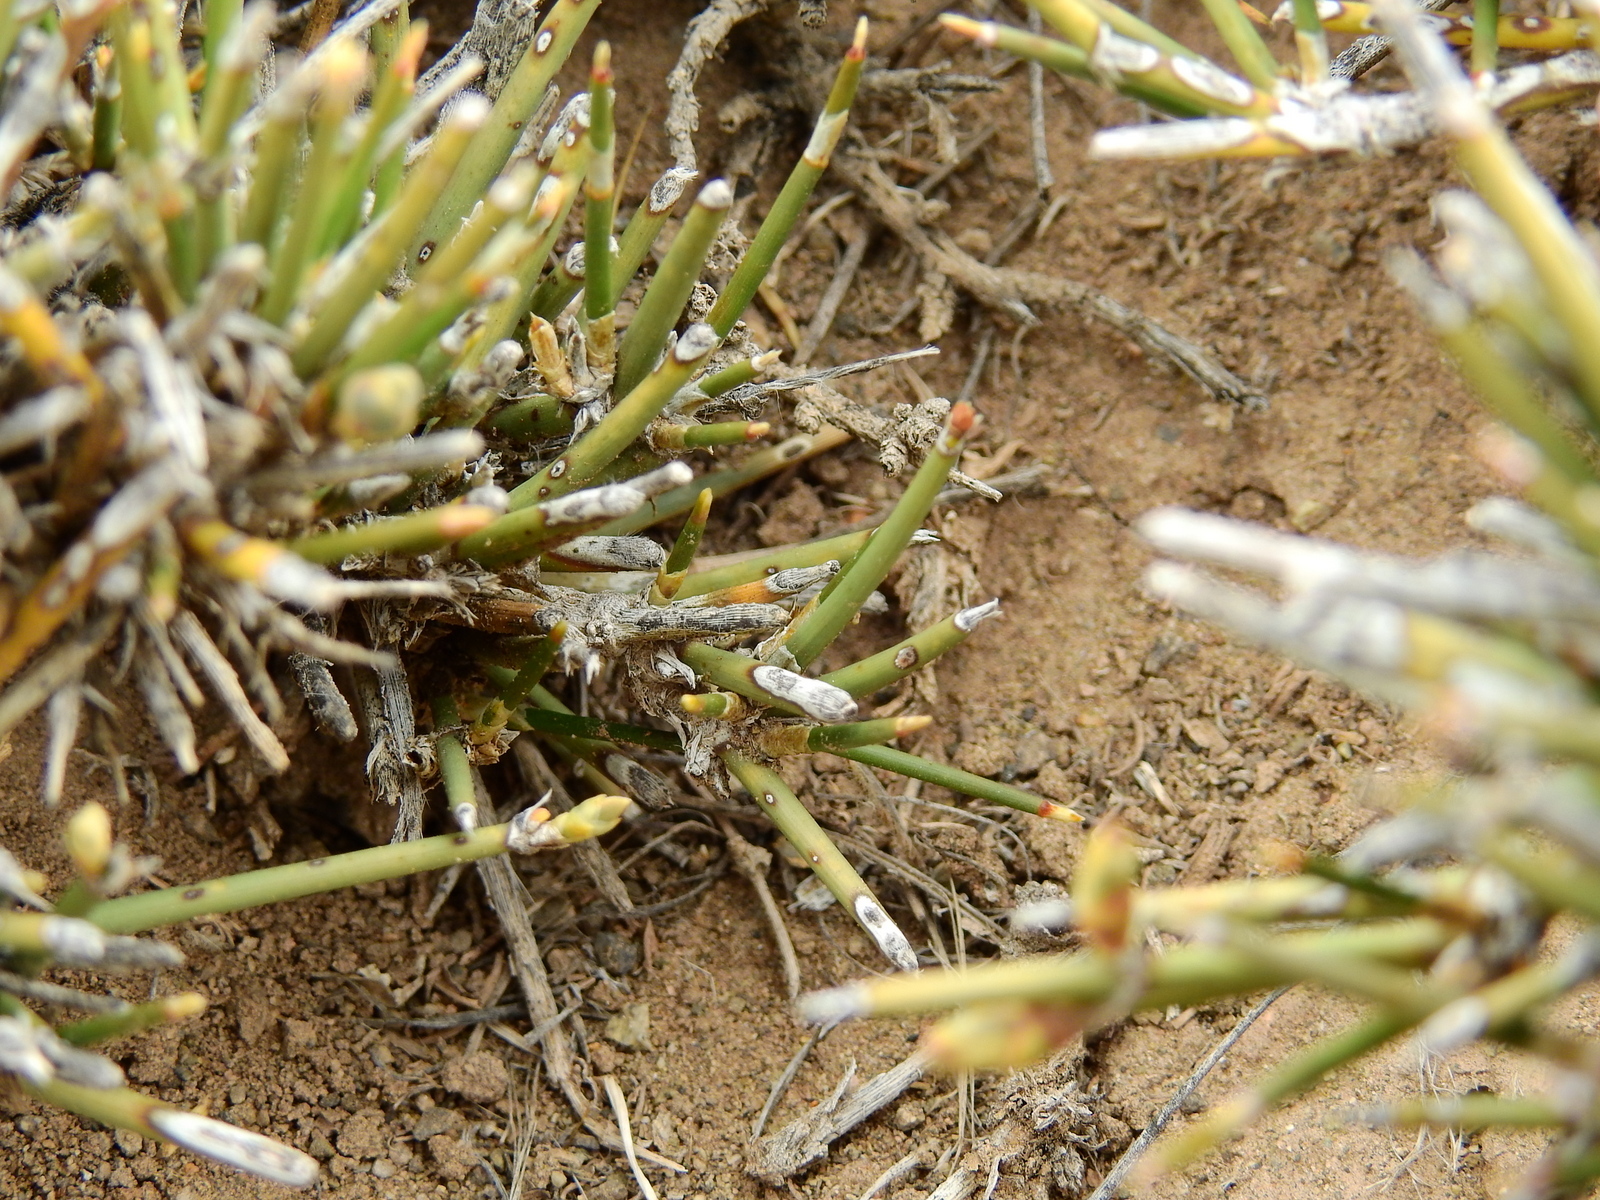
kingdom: Plantae
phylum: Tracheophyta
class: Gnetopsida
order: Ephedrales
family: Ephedraceae
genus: Ephedra
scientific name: Ephedra ochreata
